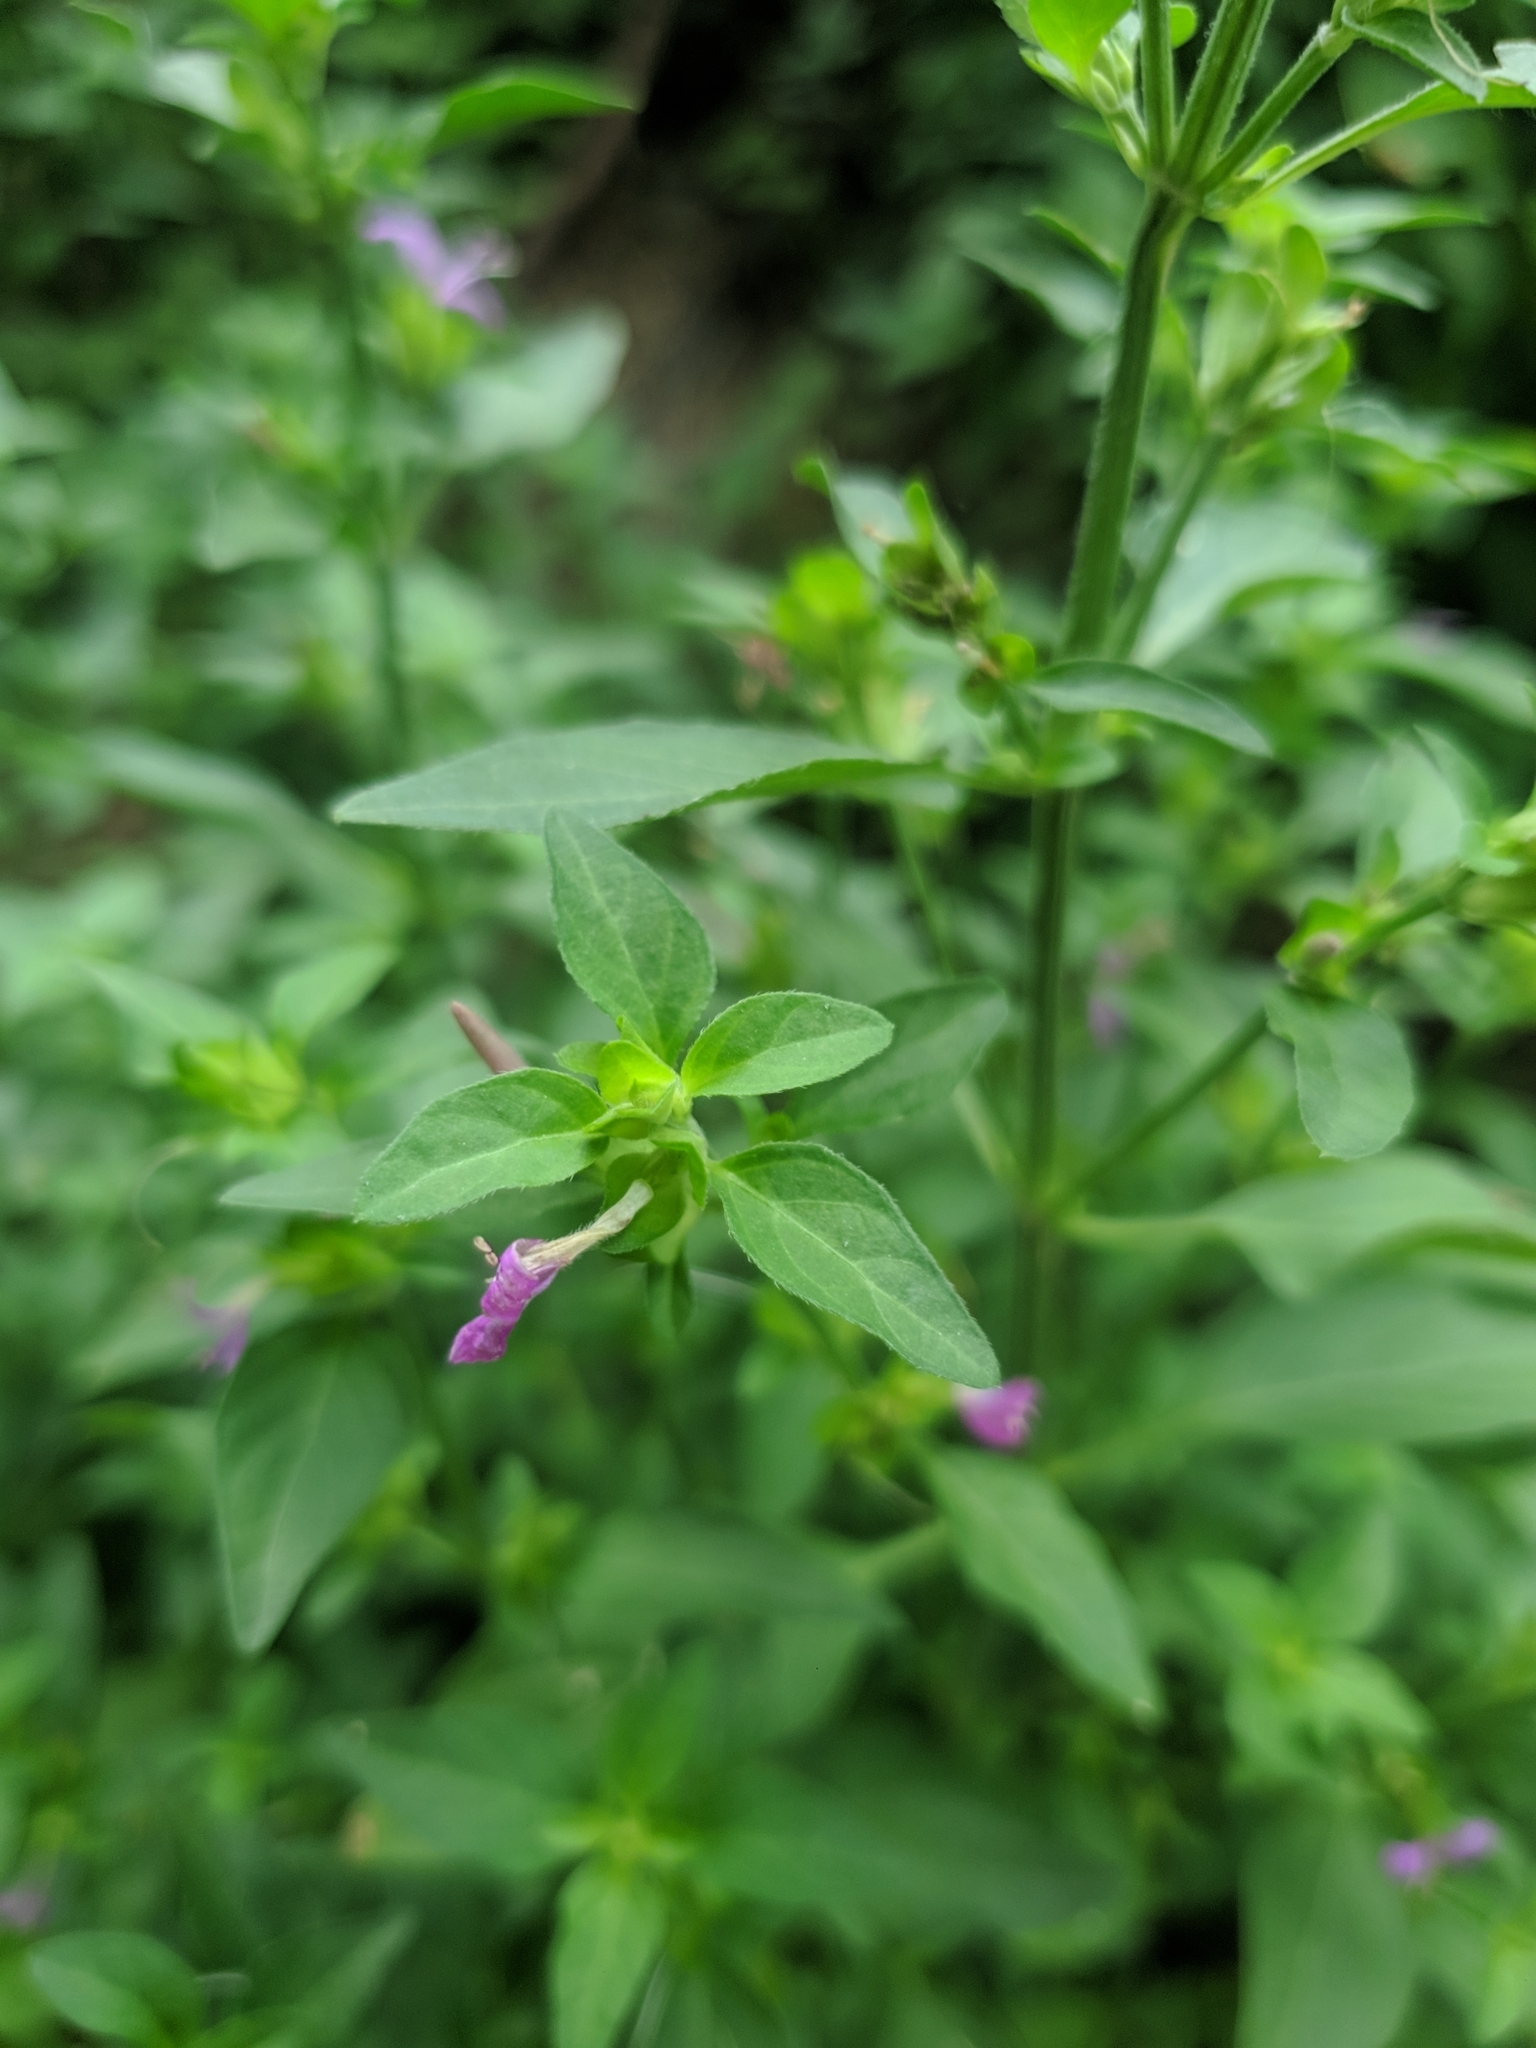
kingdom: Plantae
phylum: Tracheophyta
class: Magnoliopsida
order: Lamiales
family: Acanthaceae
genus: Dicliptera
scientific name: Dicliptera brachiata
